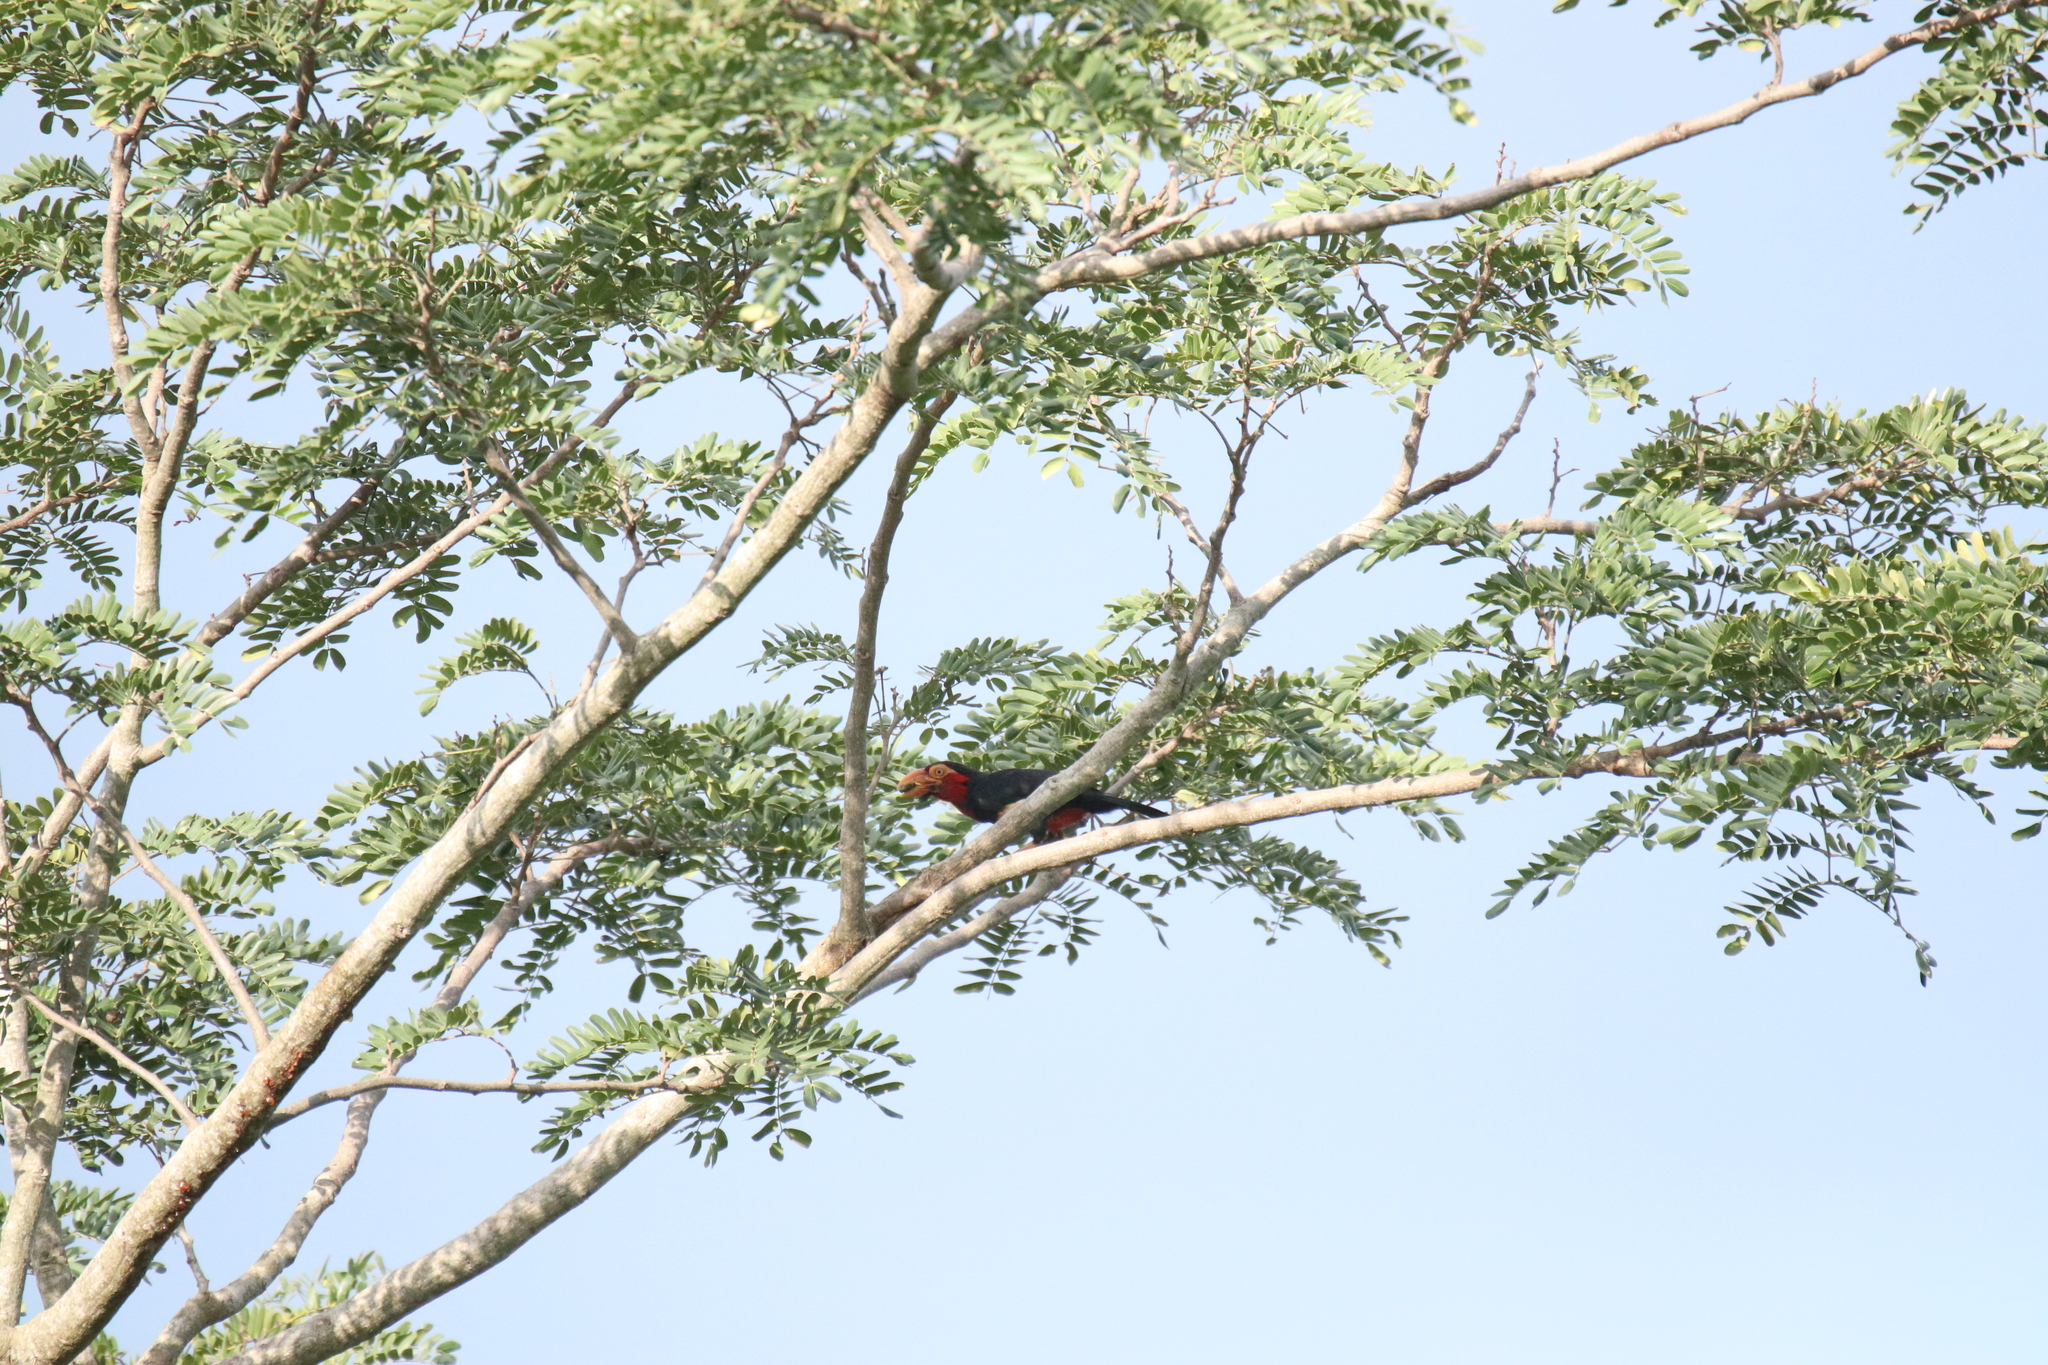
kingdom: Animalia
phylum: Chordata
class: Aves
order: Piciformes
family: Lybiidae
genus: Lybius
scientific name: Lybius dubius
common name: Bearded barbet
